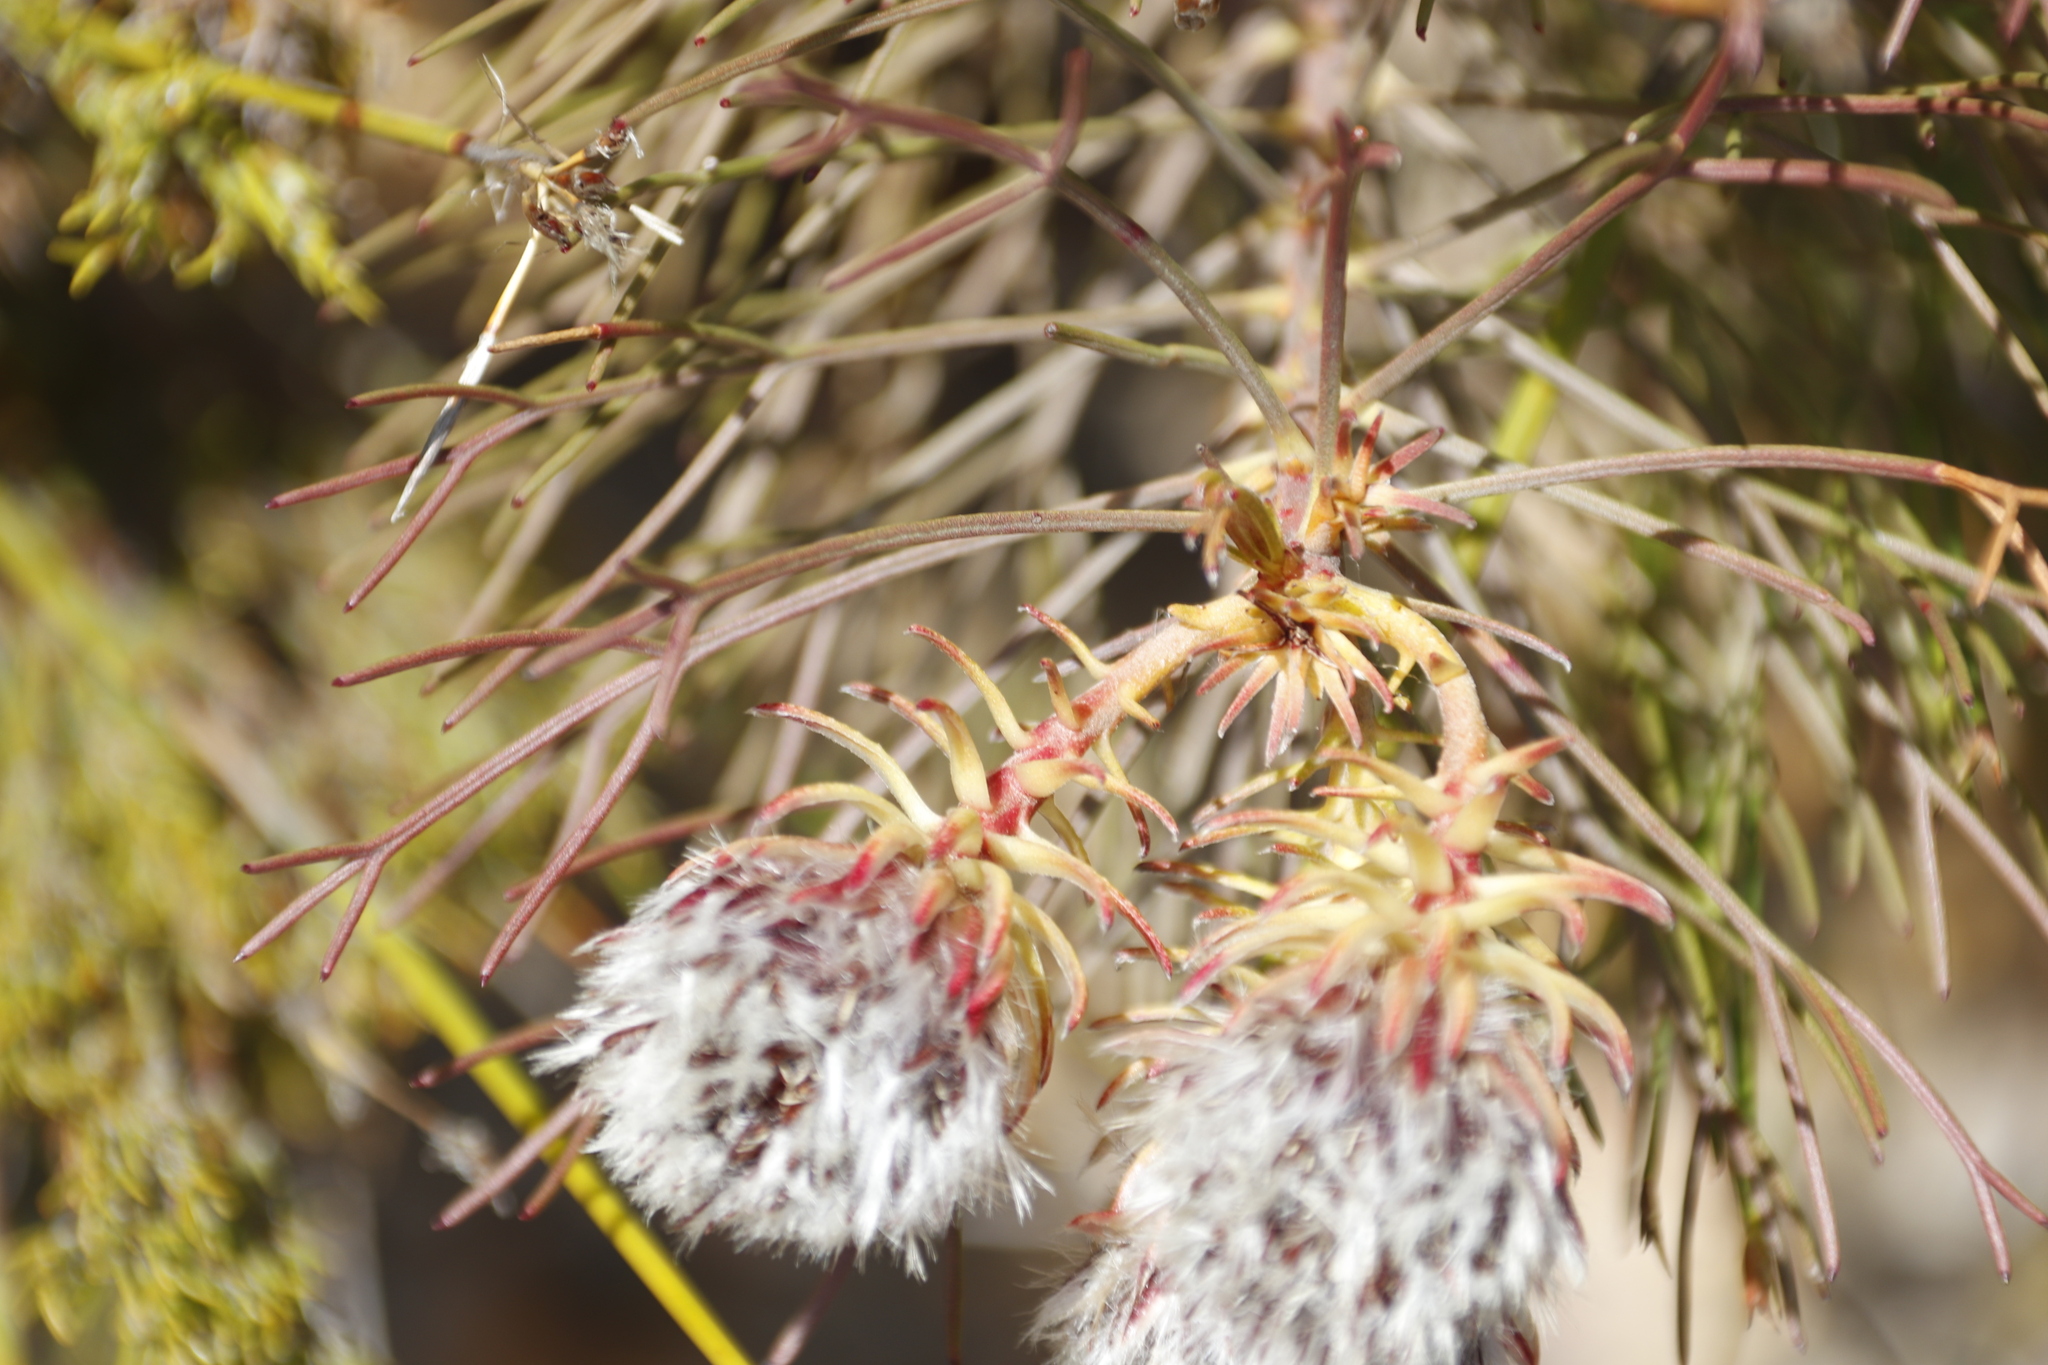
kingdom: Plantae
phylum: Tracheophyta
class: Magnoliopsida
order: Proteales
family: Proteaceae
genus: Serruria
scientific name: Serruria phylicoides
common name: Bearded spiderhead
